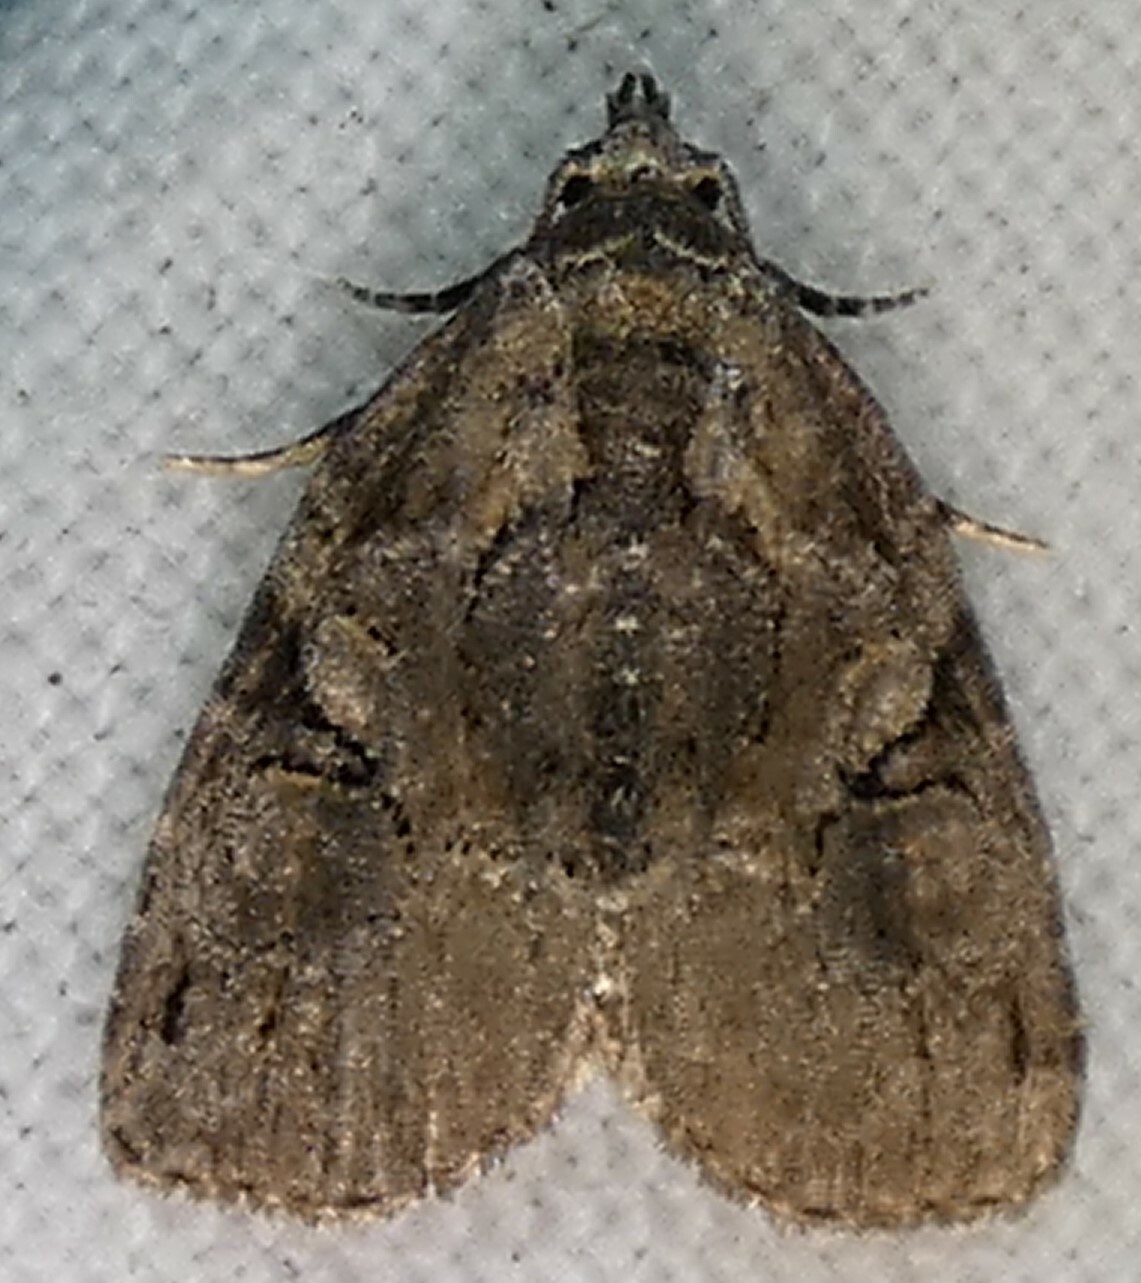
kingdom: Animalia
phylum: Arthropoda
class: Insecta
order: Lepidoptera
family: Noctuidae
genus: Pseudeustrotia
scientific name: Pseudeustrotia indeterminata
